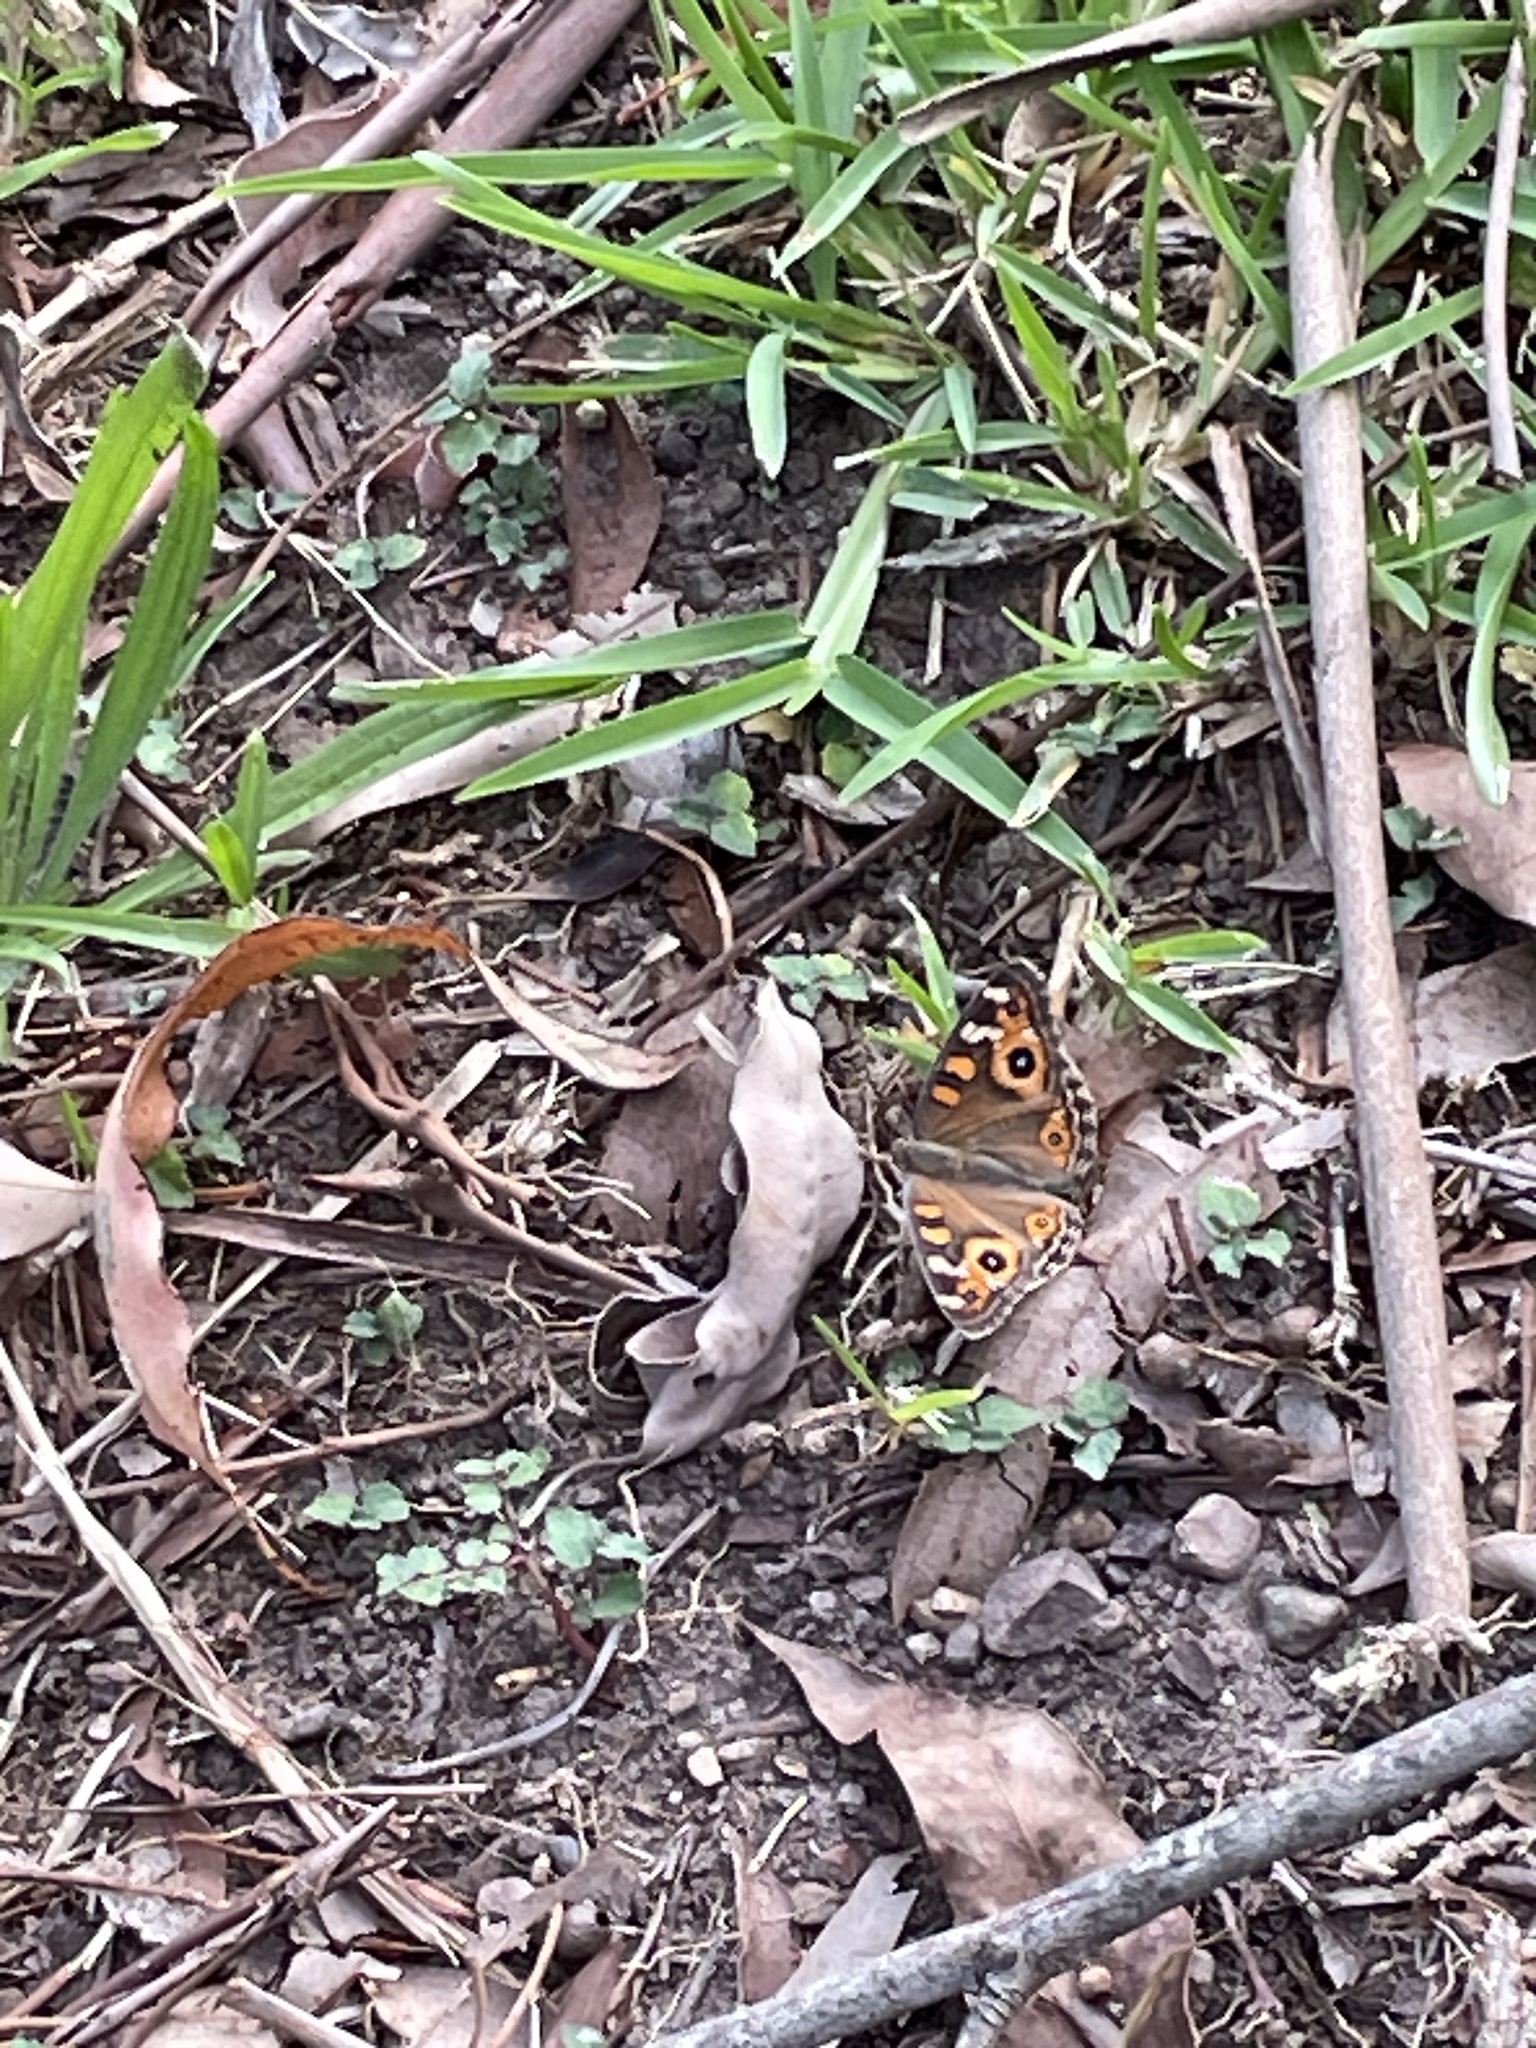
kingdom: Animalia
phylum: Arthropoda
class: Insecta
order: Lepidoptera
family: Nymphalidae
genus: Junonia
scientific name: Junonia villida
